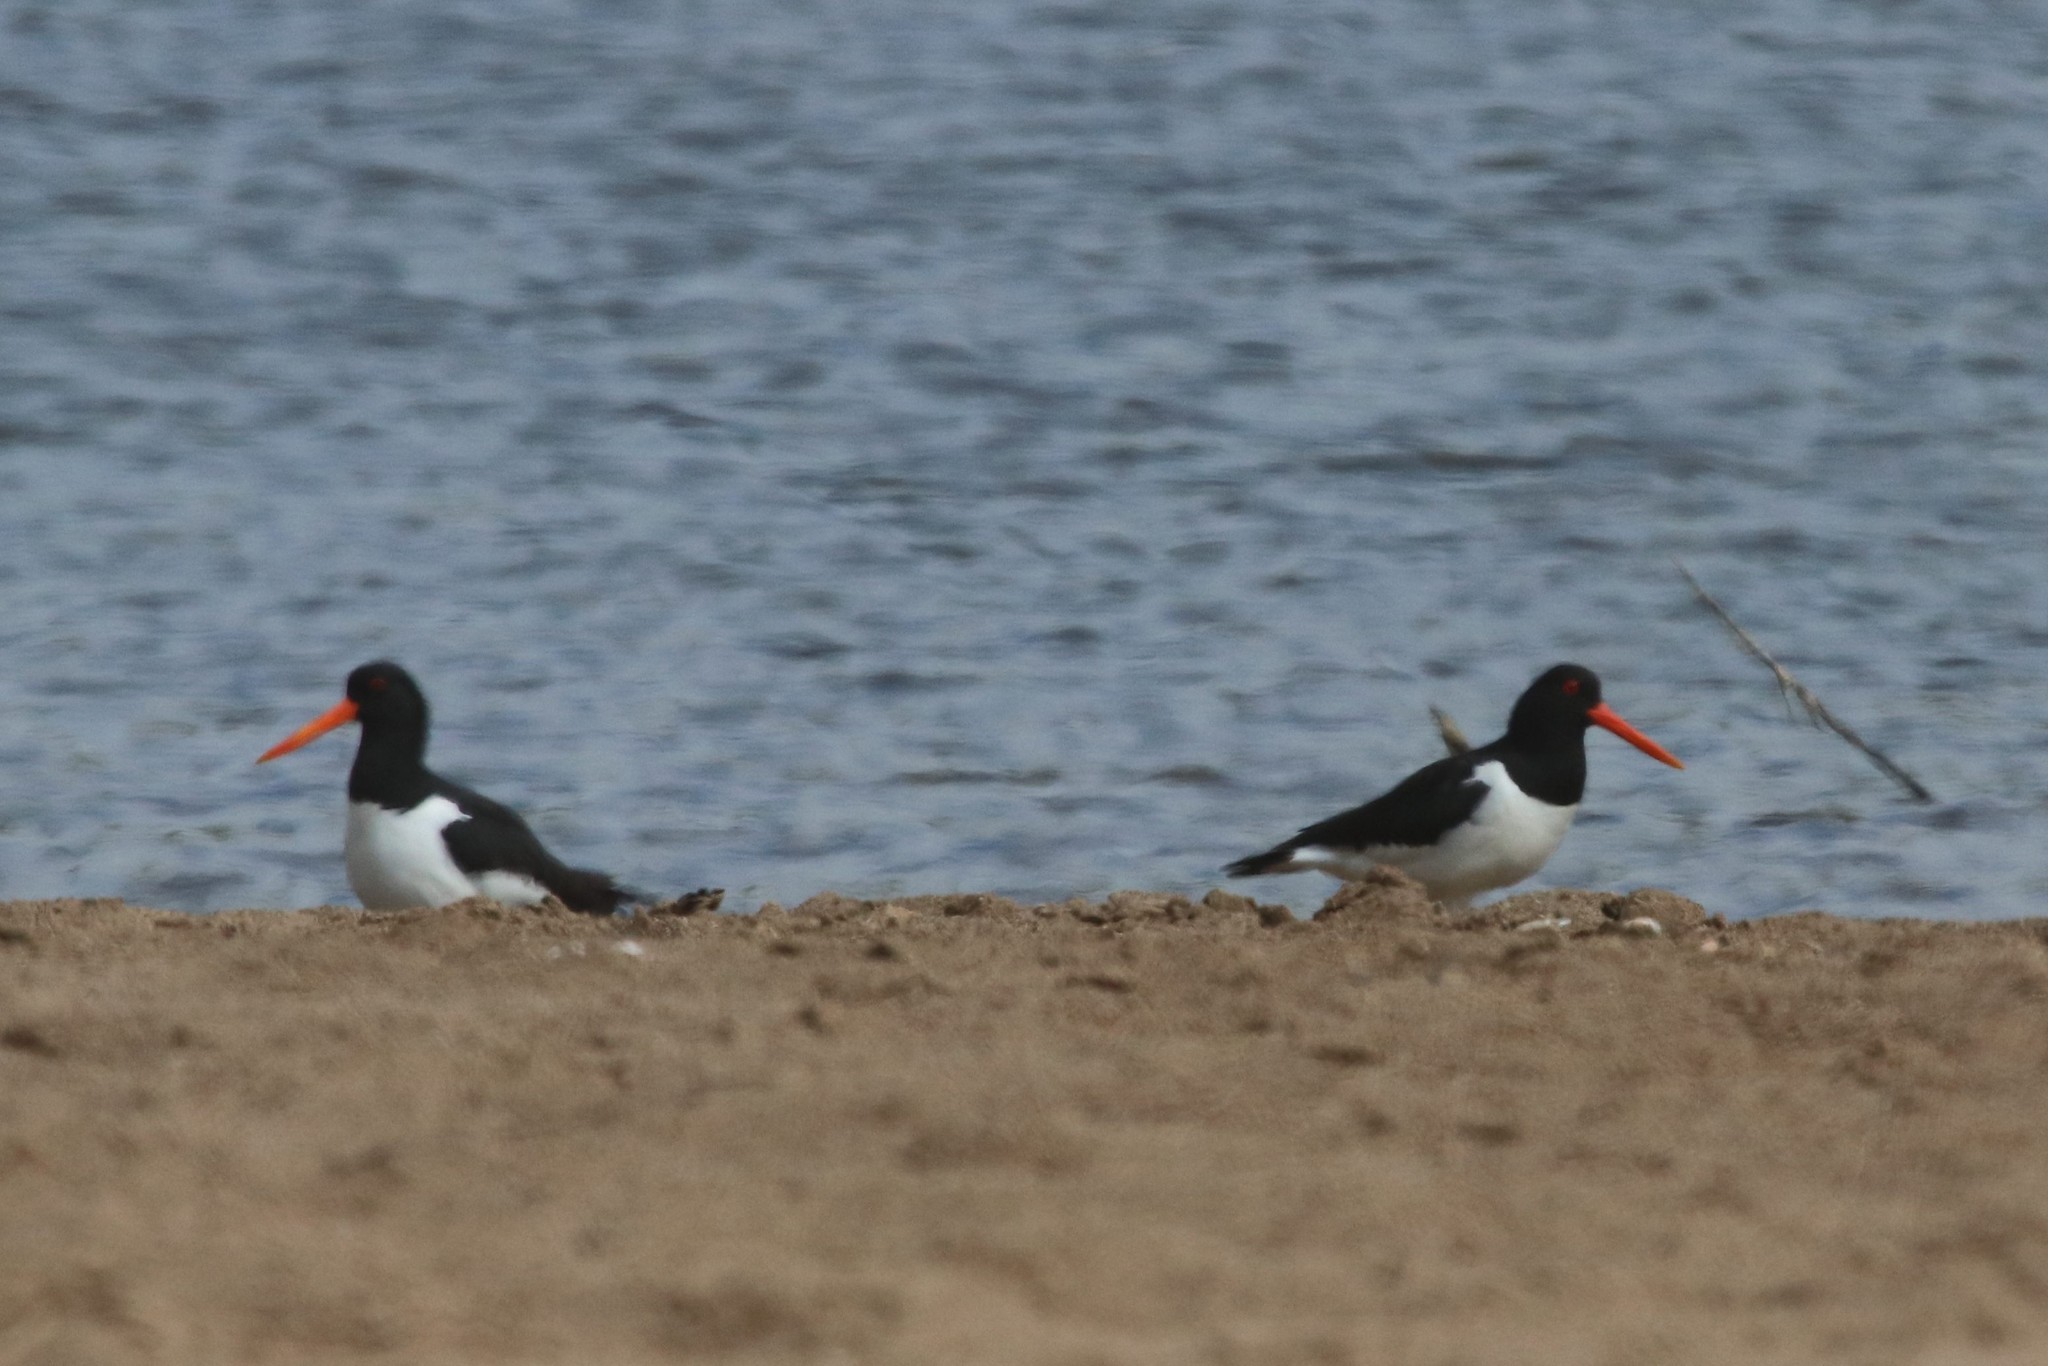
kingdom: Animalia
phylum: Chordata
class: Aves
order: Charadriiformes
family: Haematopodidae
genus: Haematopus
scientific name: Haematopus ostralegus
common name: Eurasian oystercatcher
